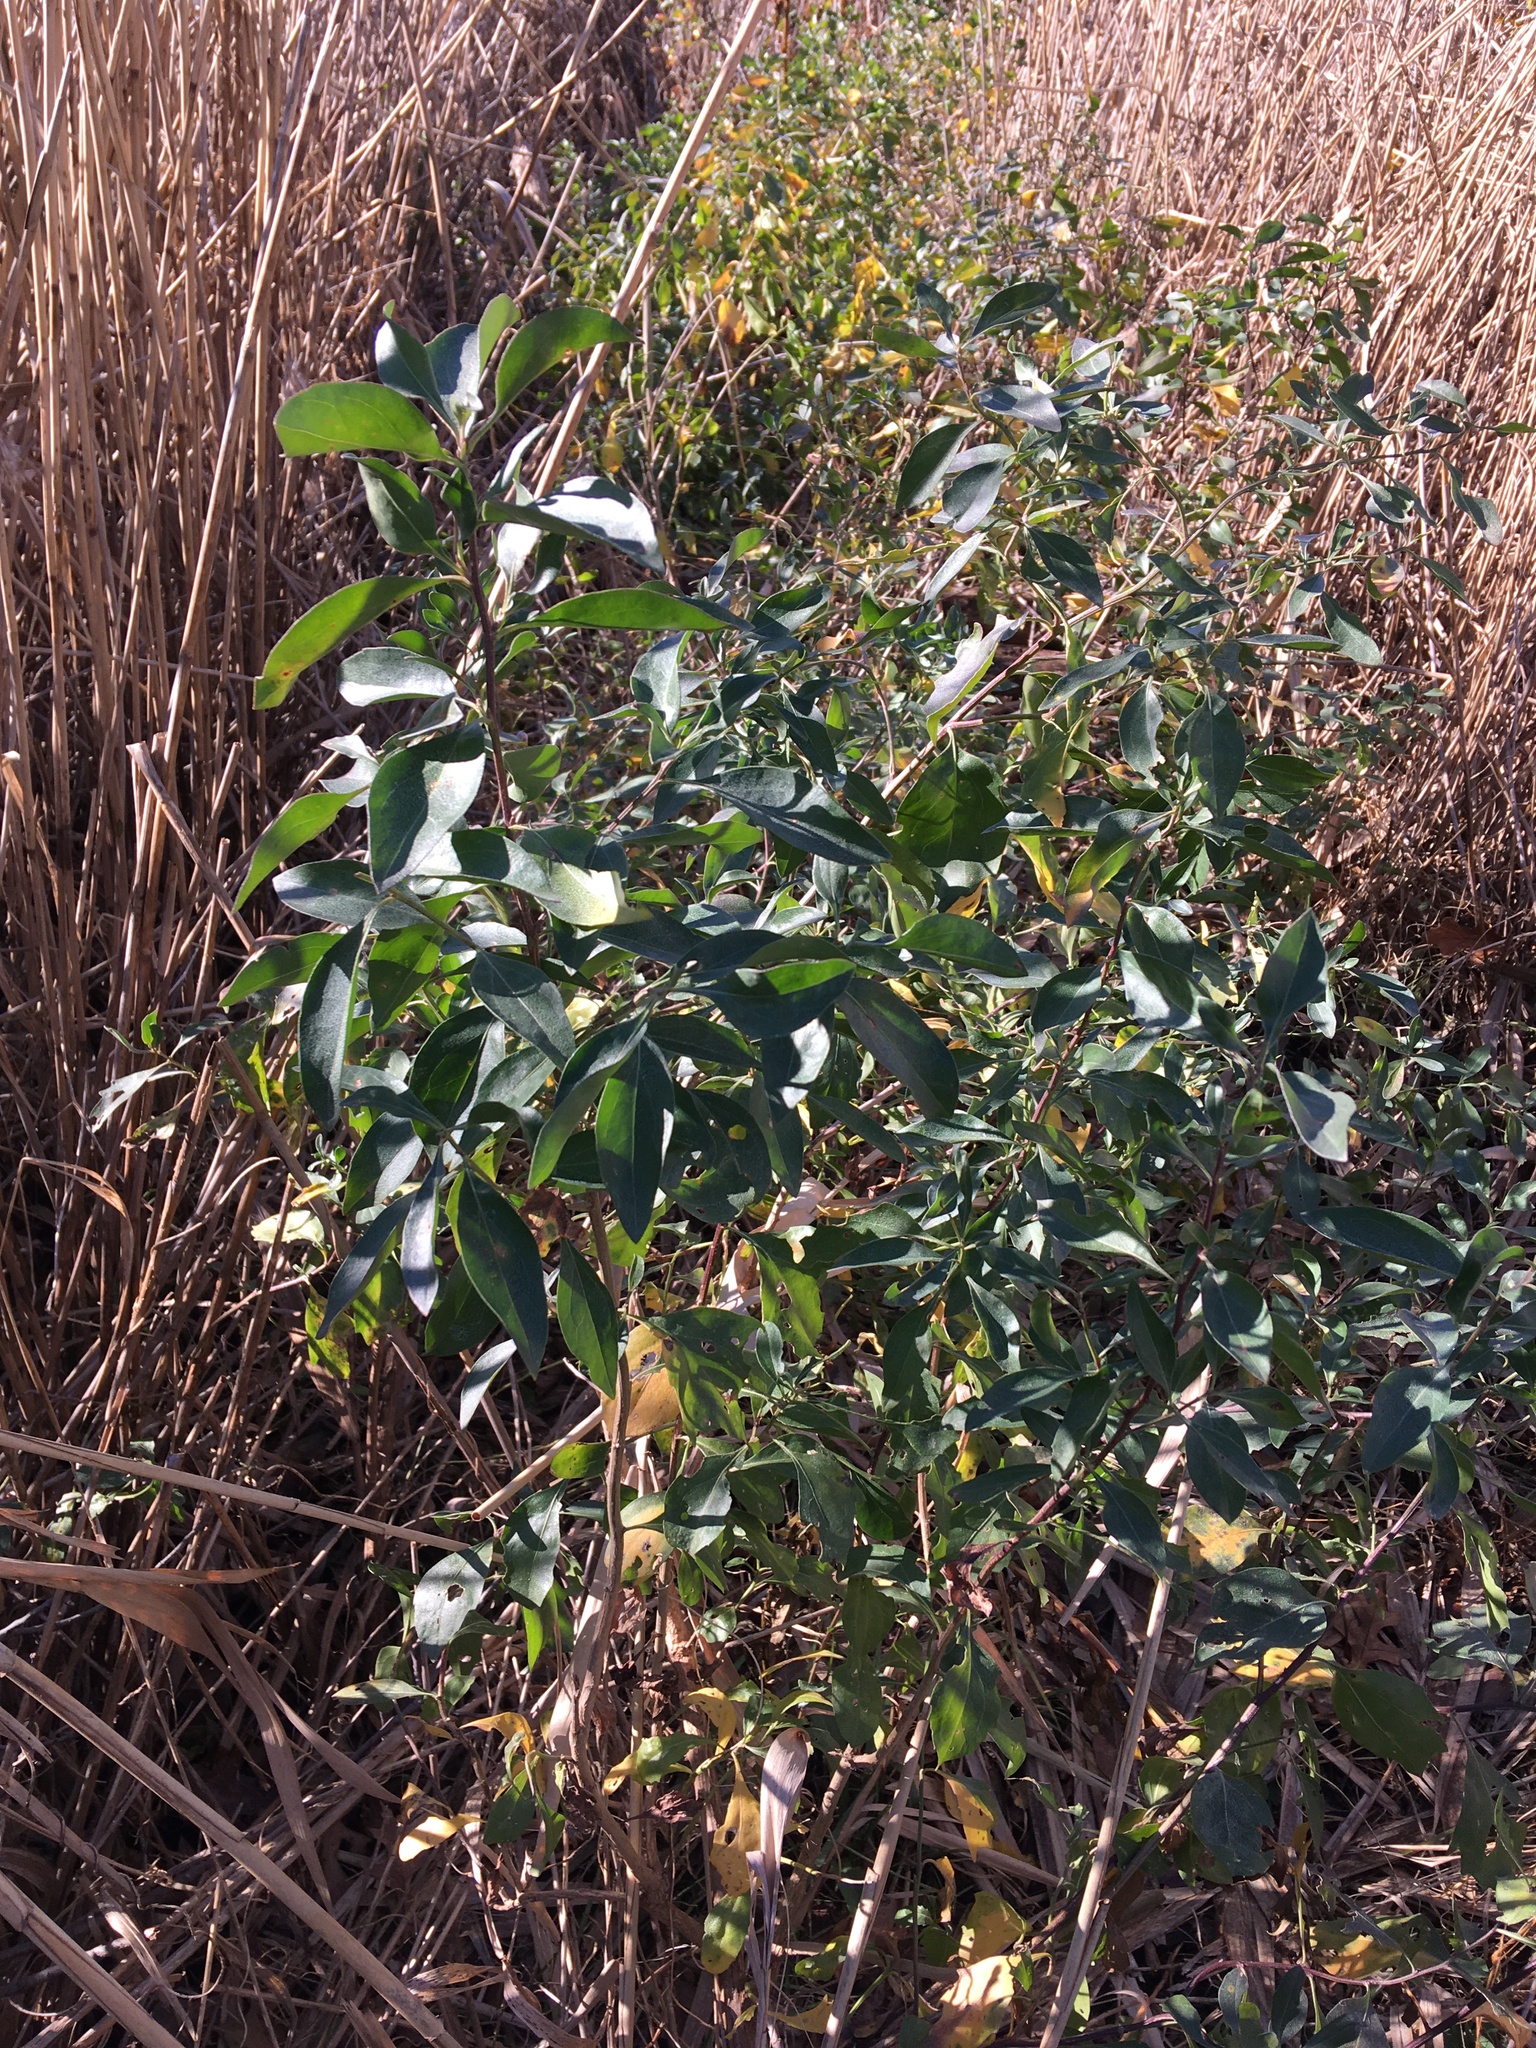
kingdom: Plantae
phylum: Tracheophyta
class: Magnoliopsida
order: Asterales
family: Asteraceae
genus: Baccharis
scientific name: Baccharis halimifolia
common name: Eastern baccharis
